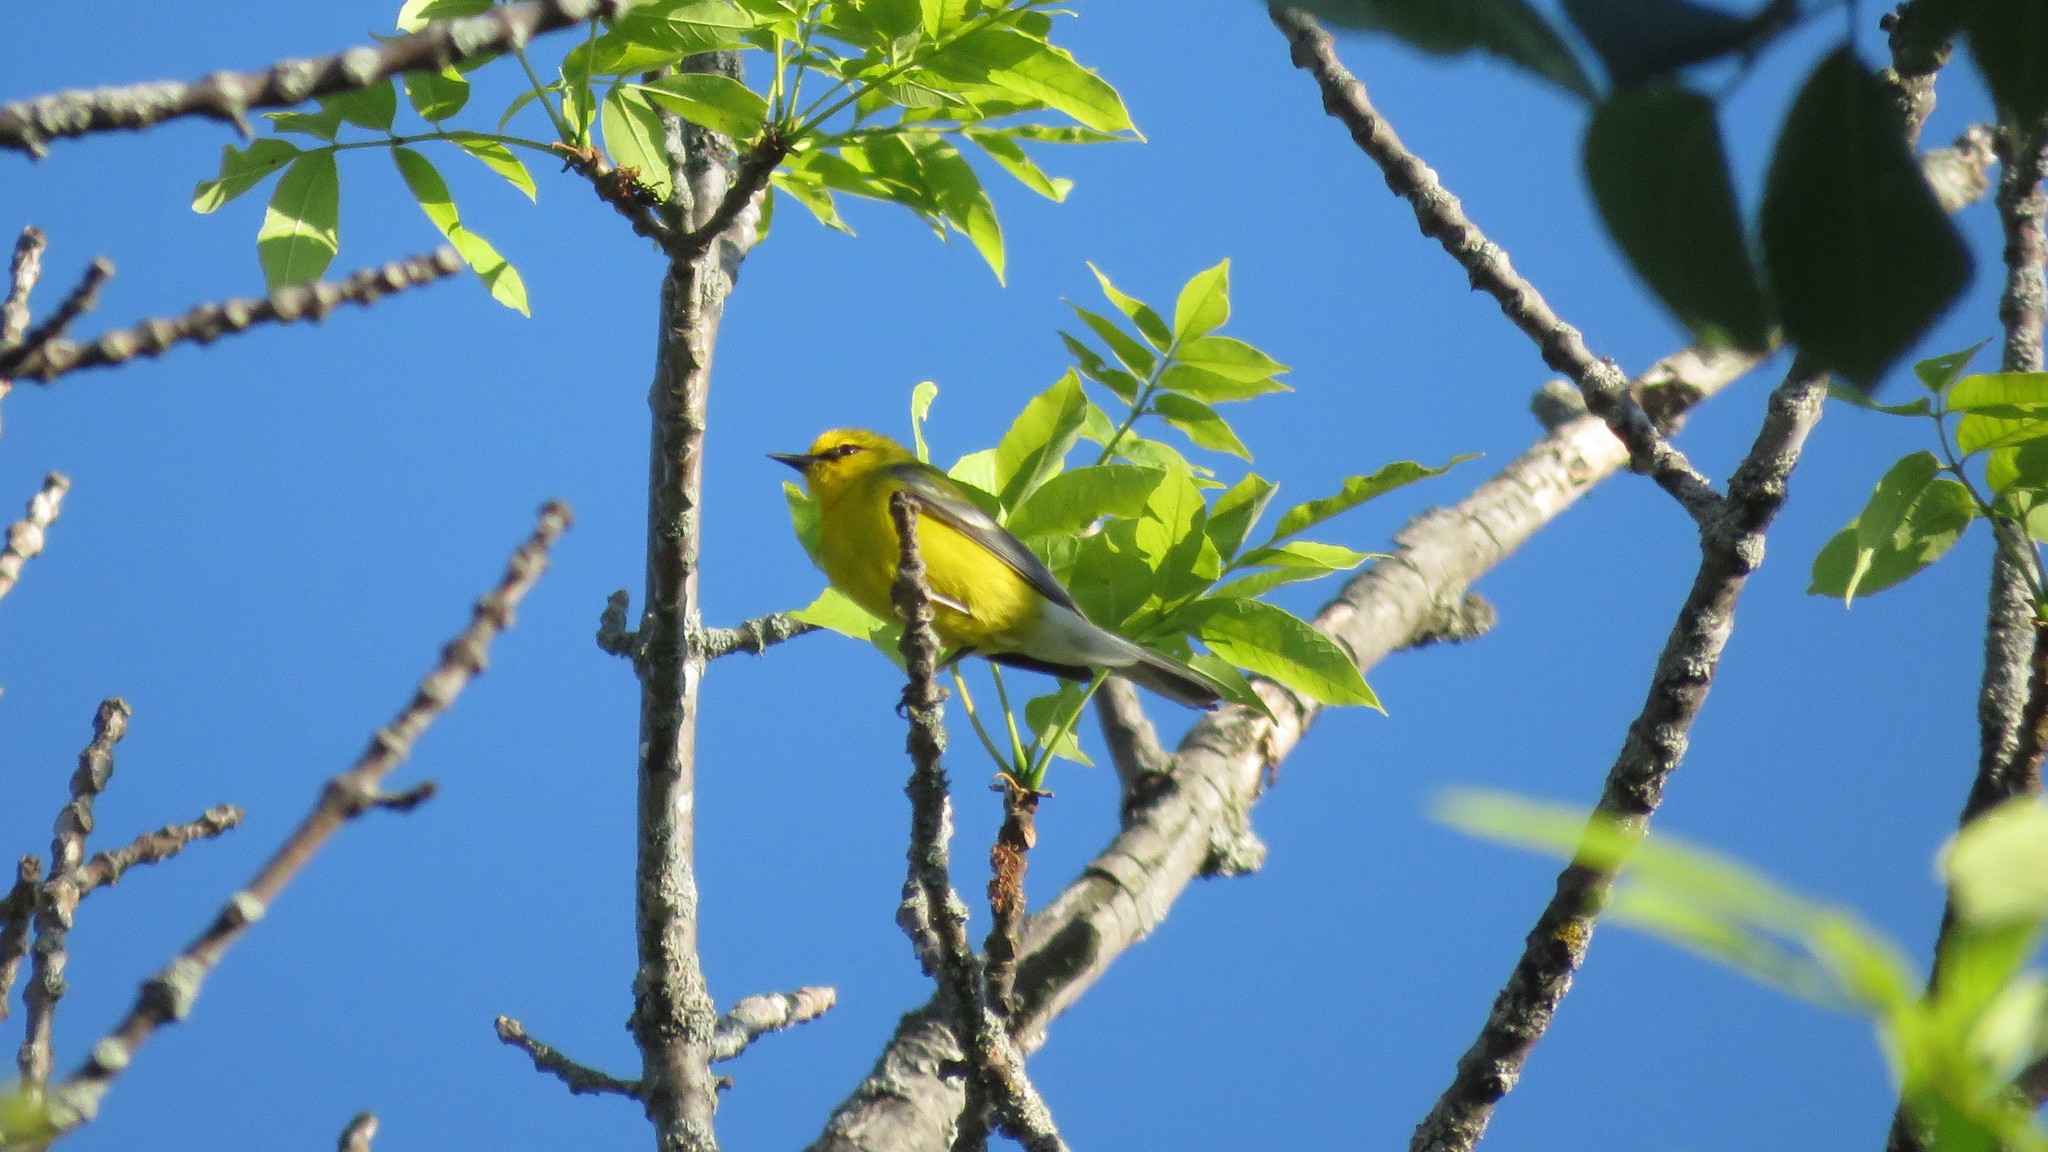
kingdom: Animalia
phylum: Chordata
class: Aves
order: Passeriformes
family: Parulidae
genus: Vermivora
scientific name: Vermivora cyanoptera
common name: Blue-winged warbler
